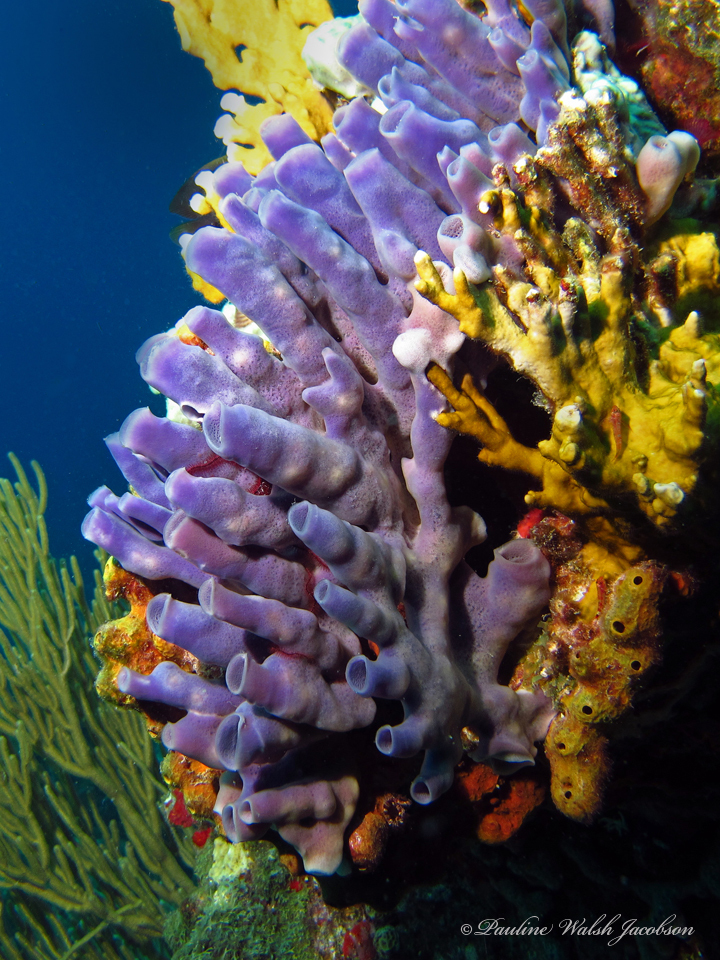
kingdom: Animalia
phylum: Porifera
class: Demospongiae
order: Haplosclerida
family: Callyspongiidae
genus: Callyspongia
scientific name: Callyspongia fallax
